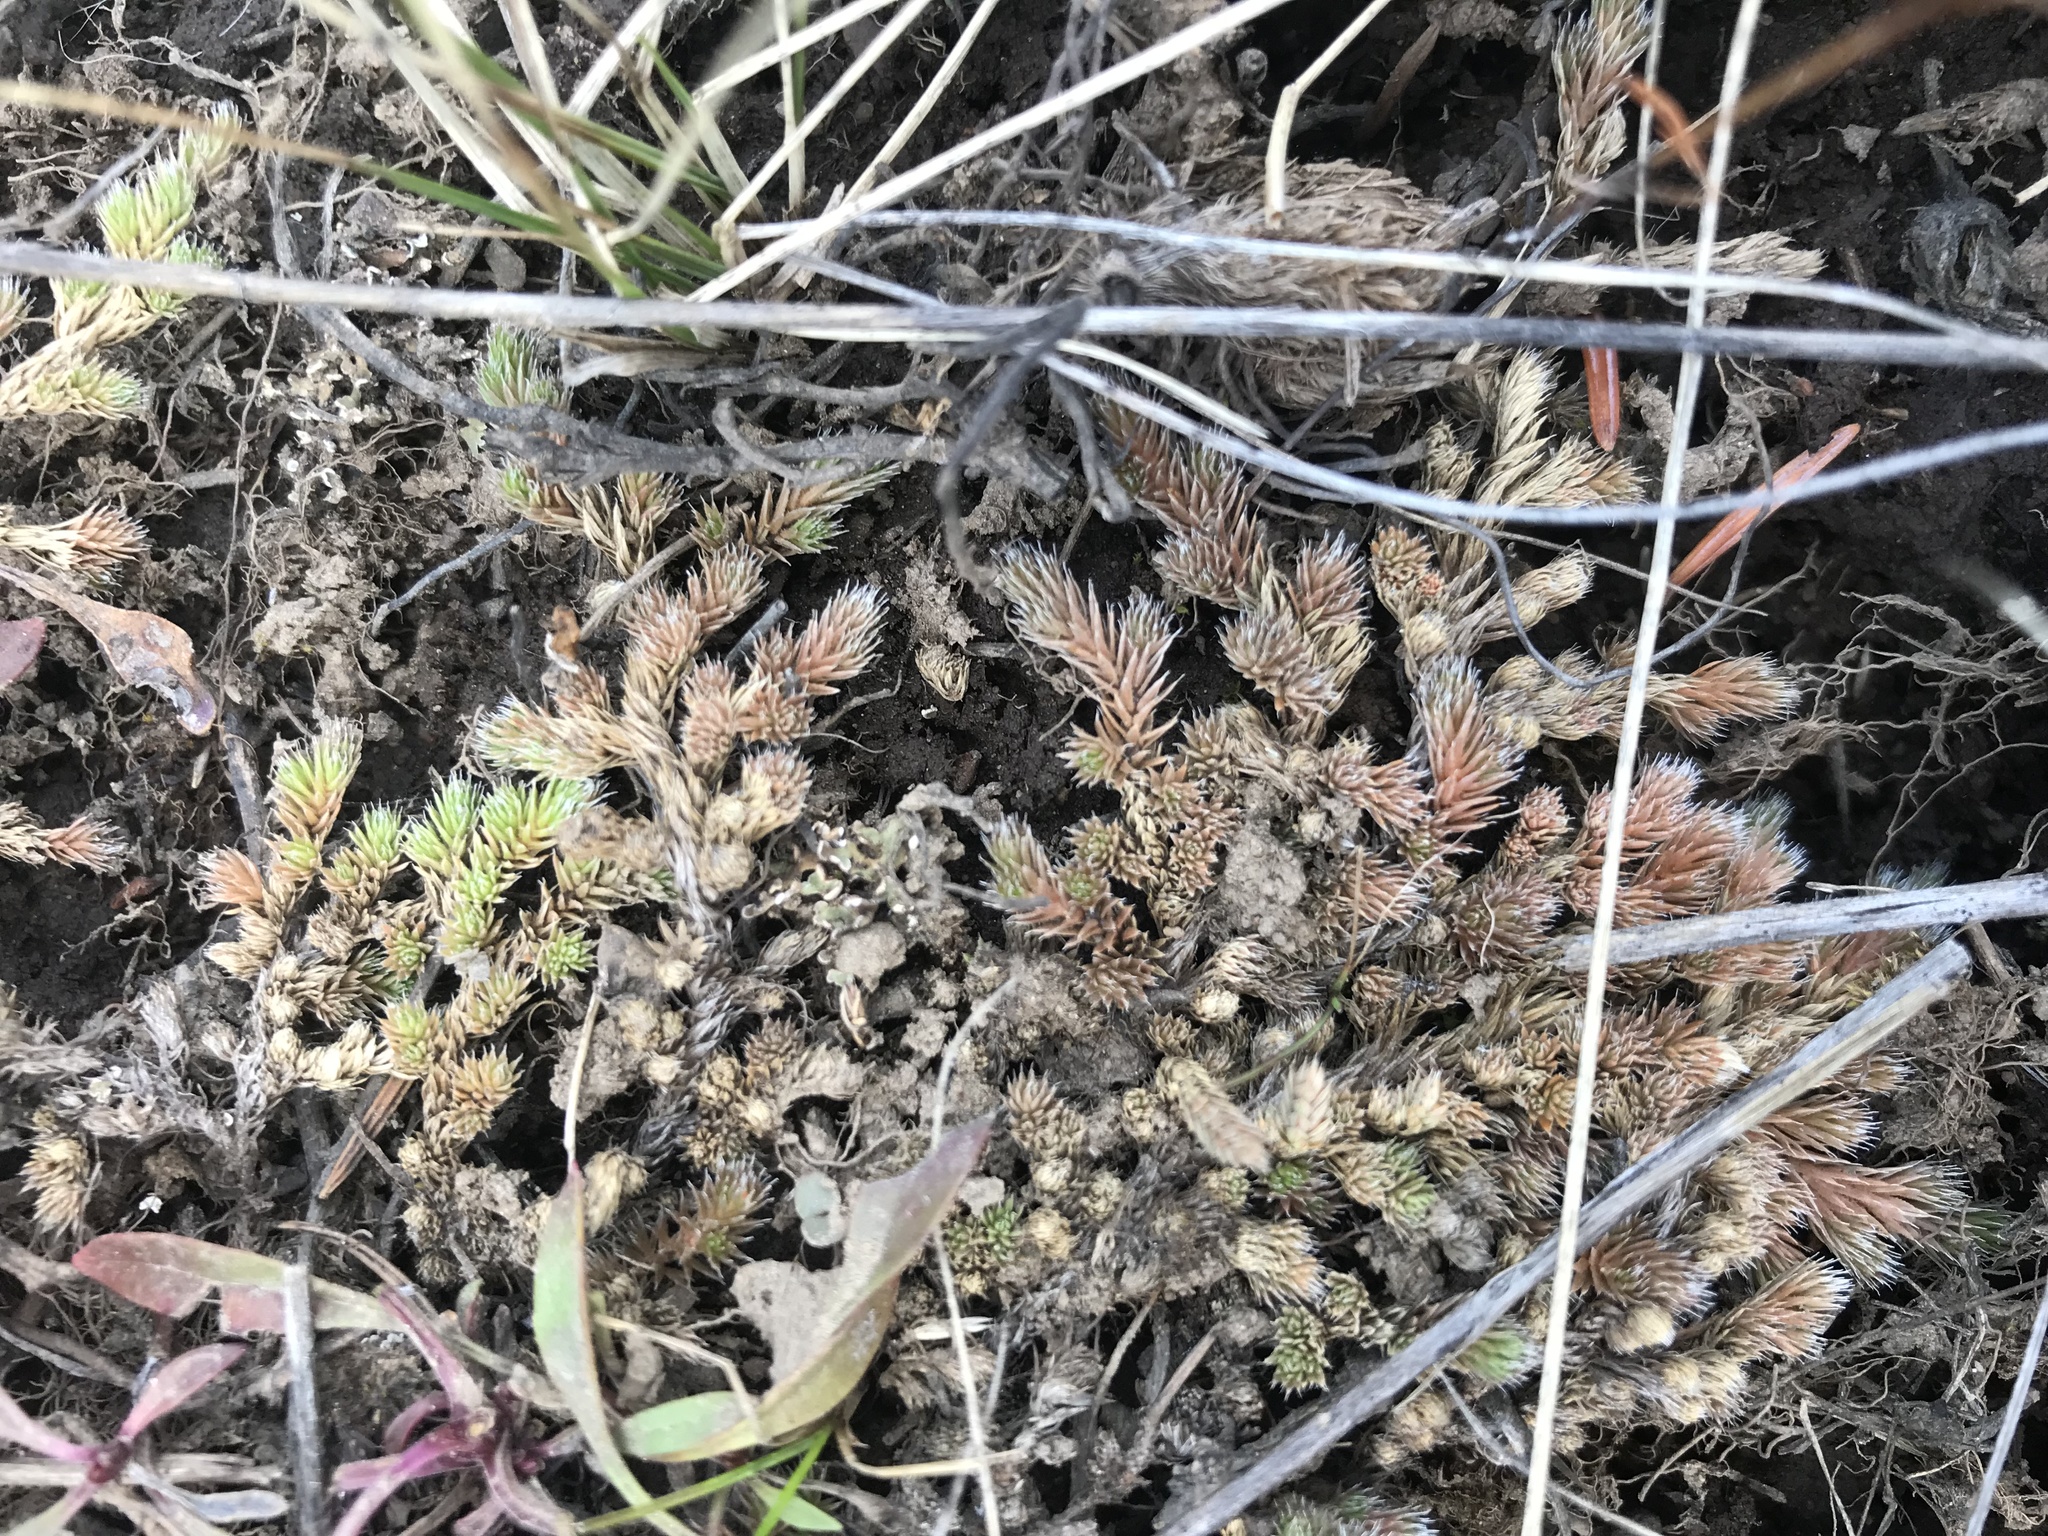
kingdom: Plantae
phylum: Tracheophyta
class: Lycopodiopsida
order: Selaginellales
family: Selaginellaceae
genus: Selaginella
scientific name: Selaginella densa
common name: Mountain spike-moss
